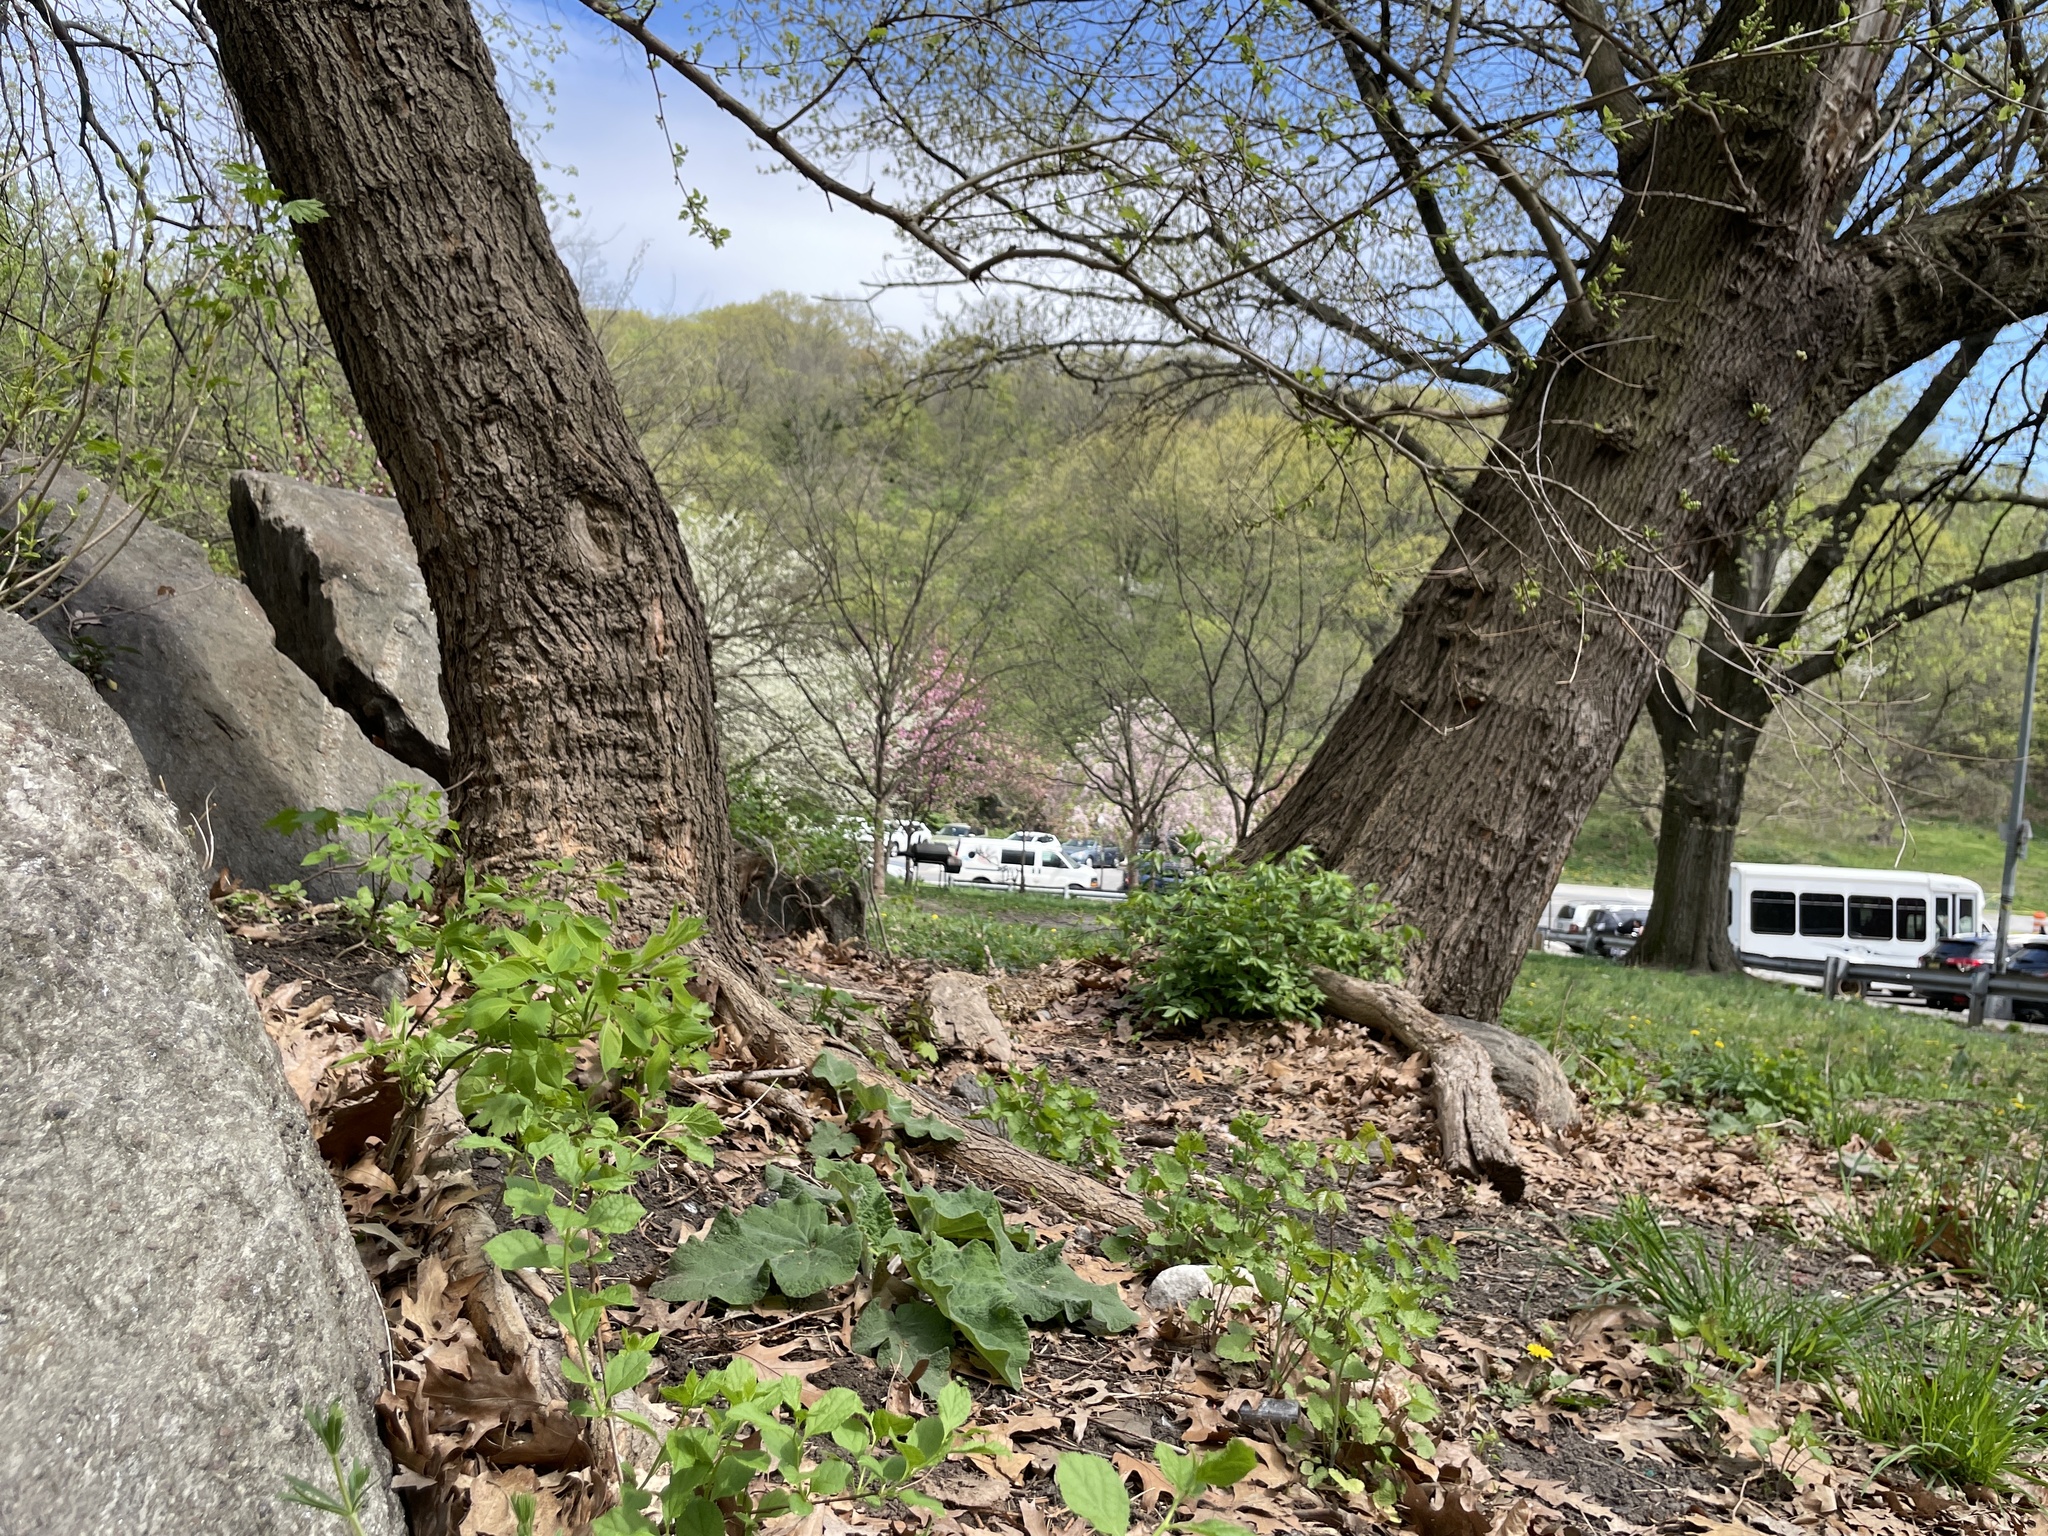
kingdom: Plantae
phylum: Tracheophyta
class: Magnoliopsida
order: Crossosomatales
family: Staphyleaceae
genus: Staphylea
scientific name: Staphylea trifolia
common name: American bladdernut
